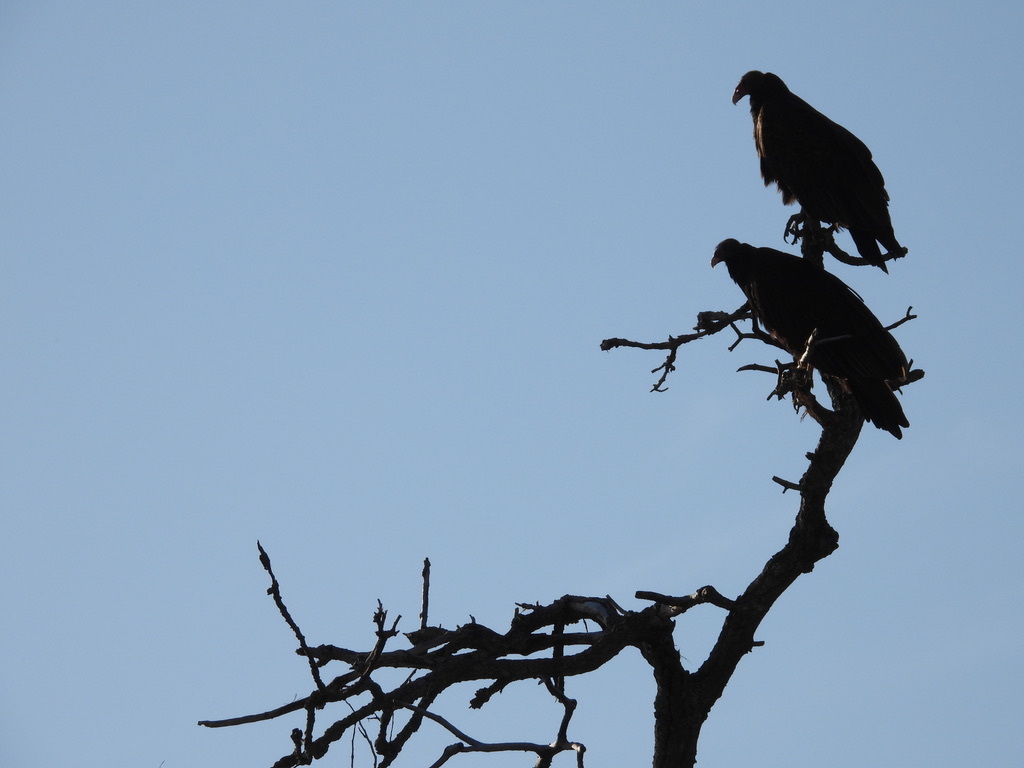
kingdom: Animalia
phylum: Chordata
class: Aves
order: Accipitriformes
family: Cathartidae
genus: Cathartes
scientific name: Cathartes aura
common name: Turkey vulture
